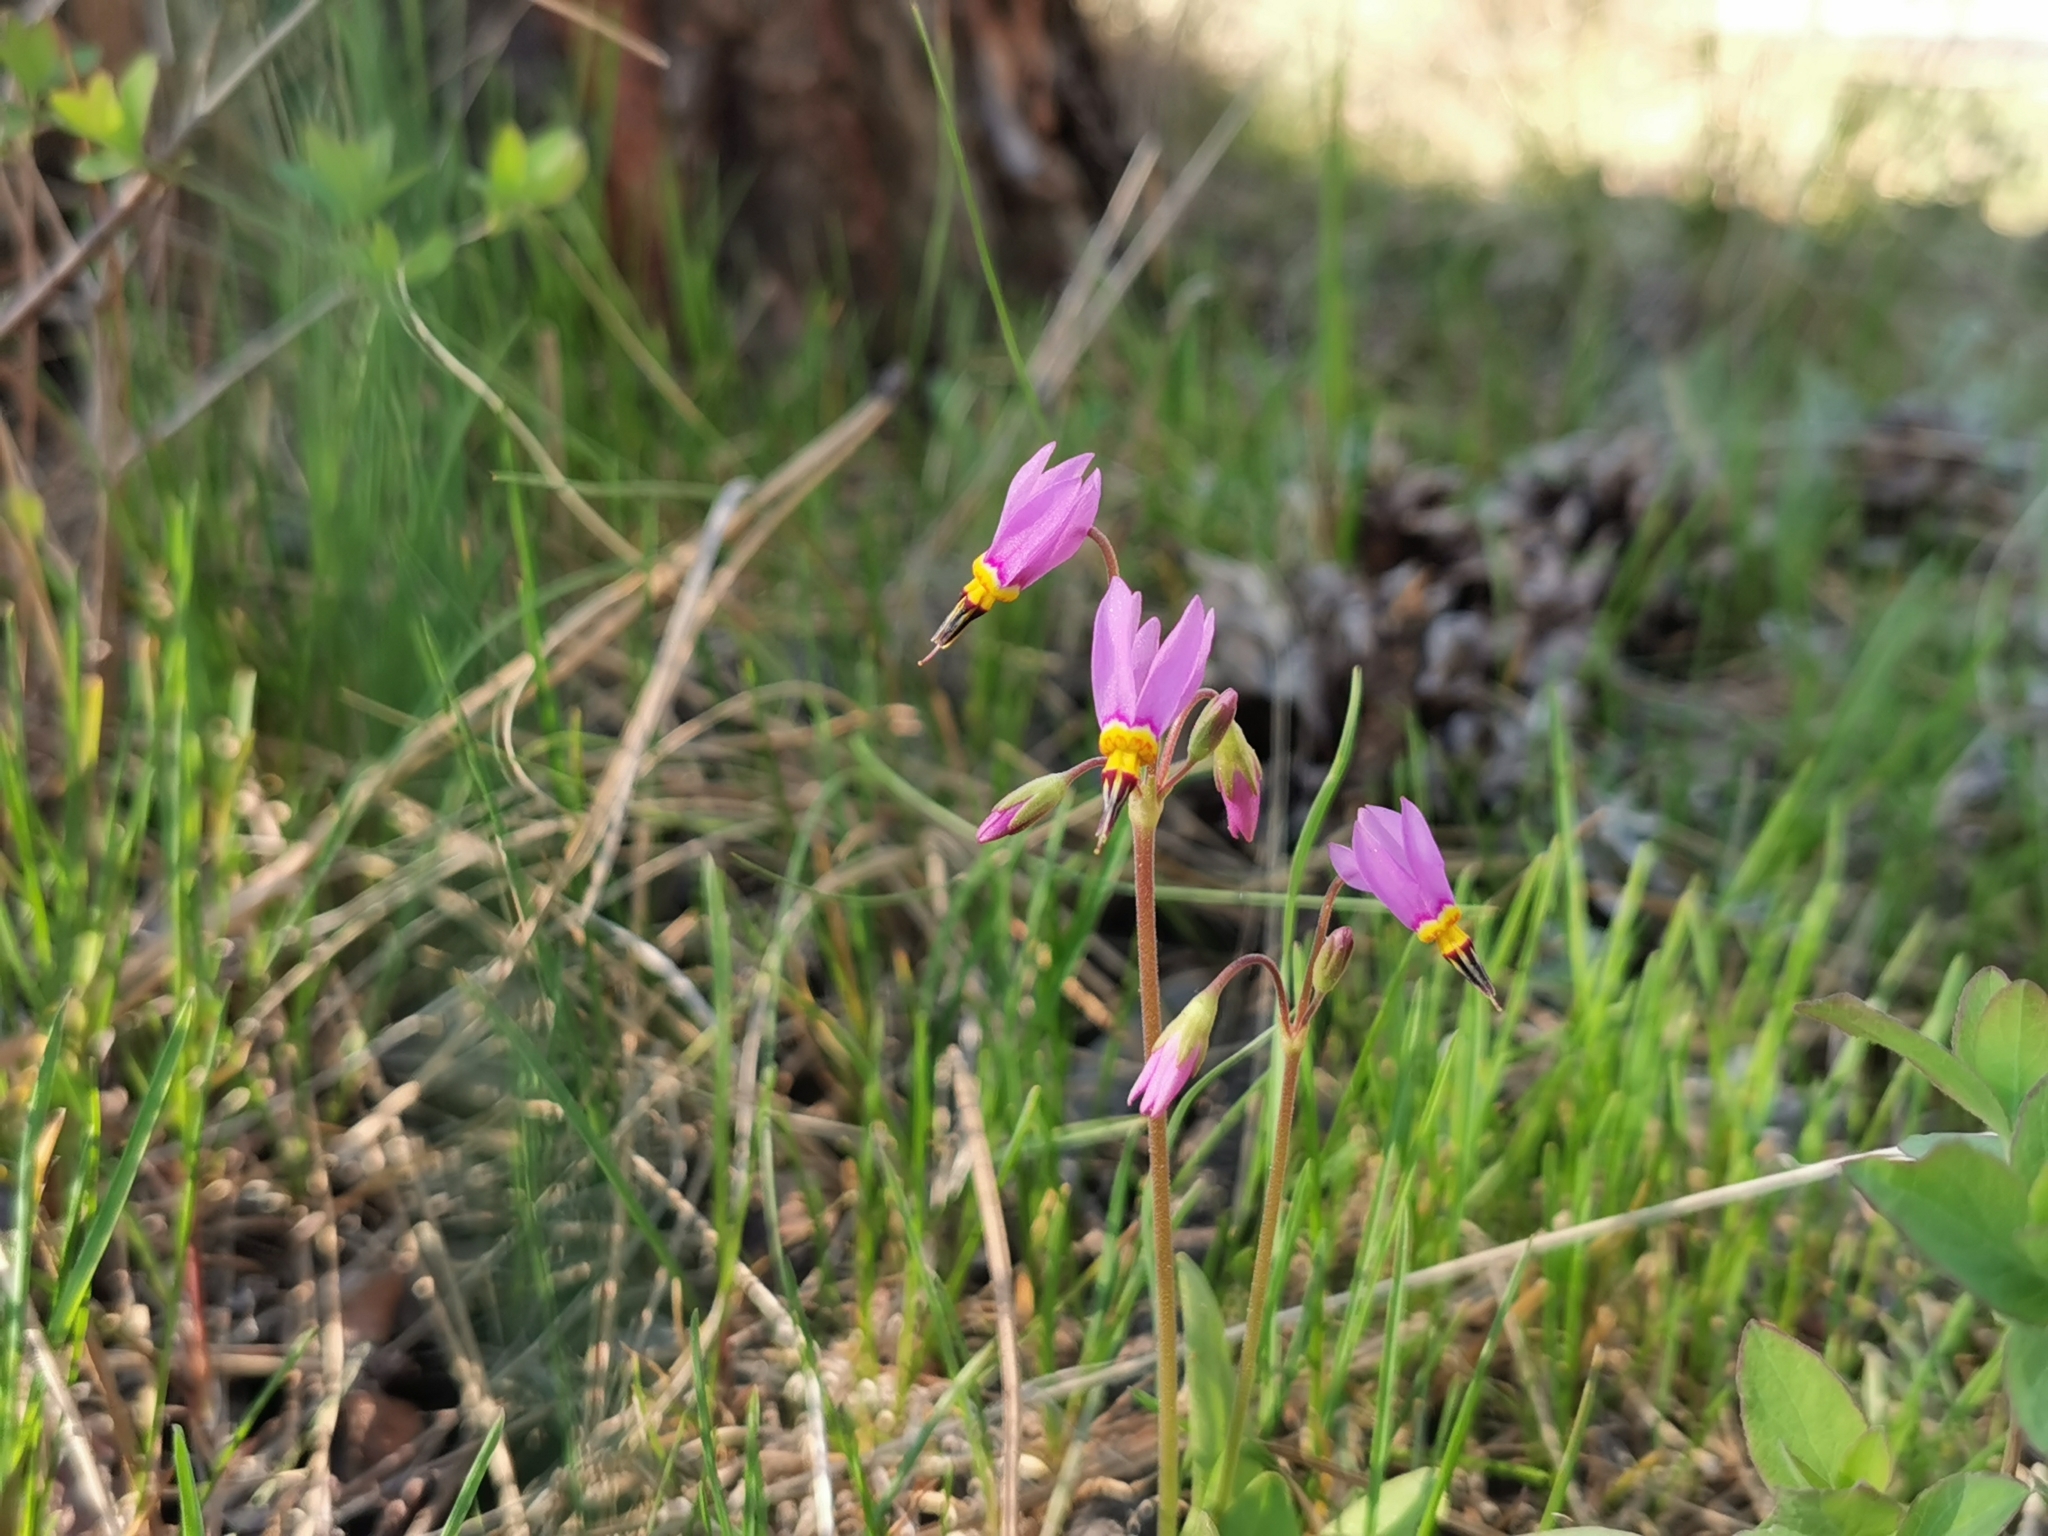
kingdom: Plantae
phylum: Tracheophyta
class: Magnoliopsida
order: Ericales
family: Primulaceae
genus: Dodecatheon
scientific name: Dodecatheon pulchellum
